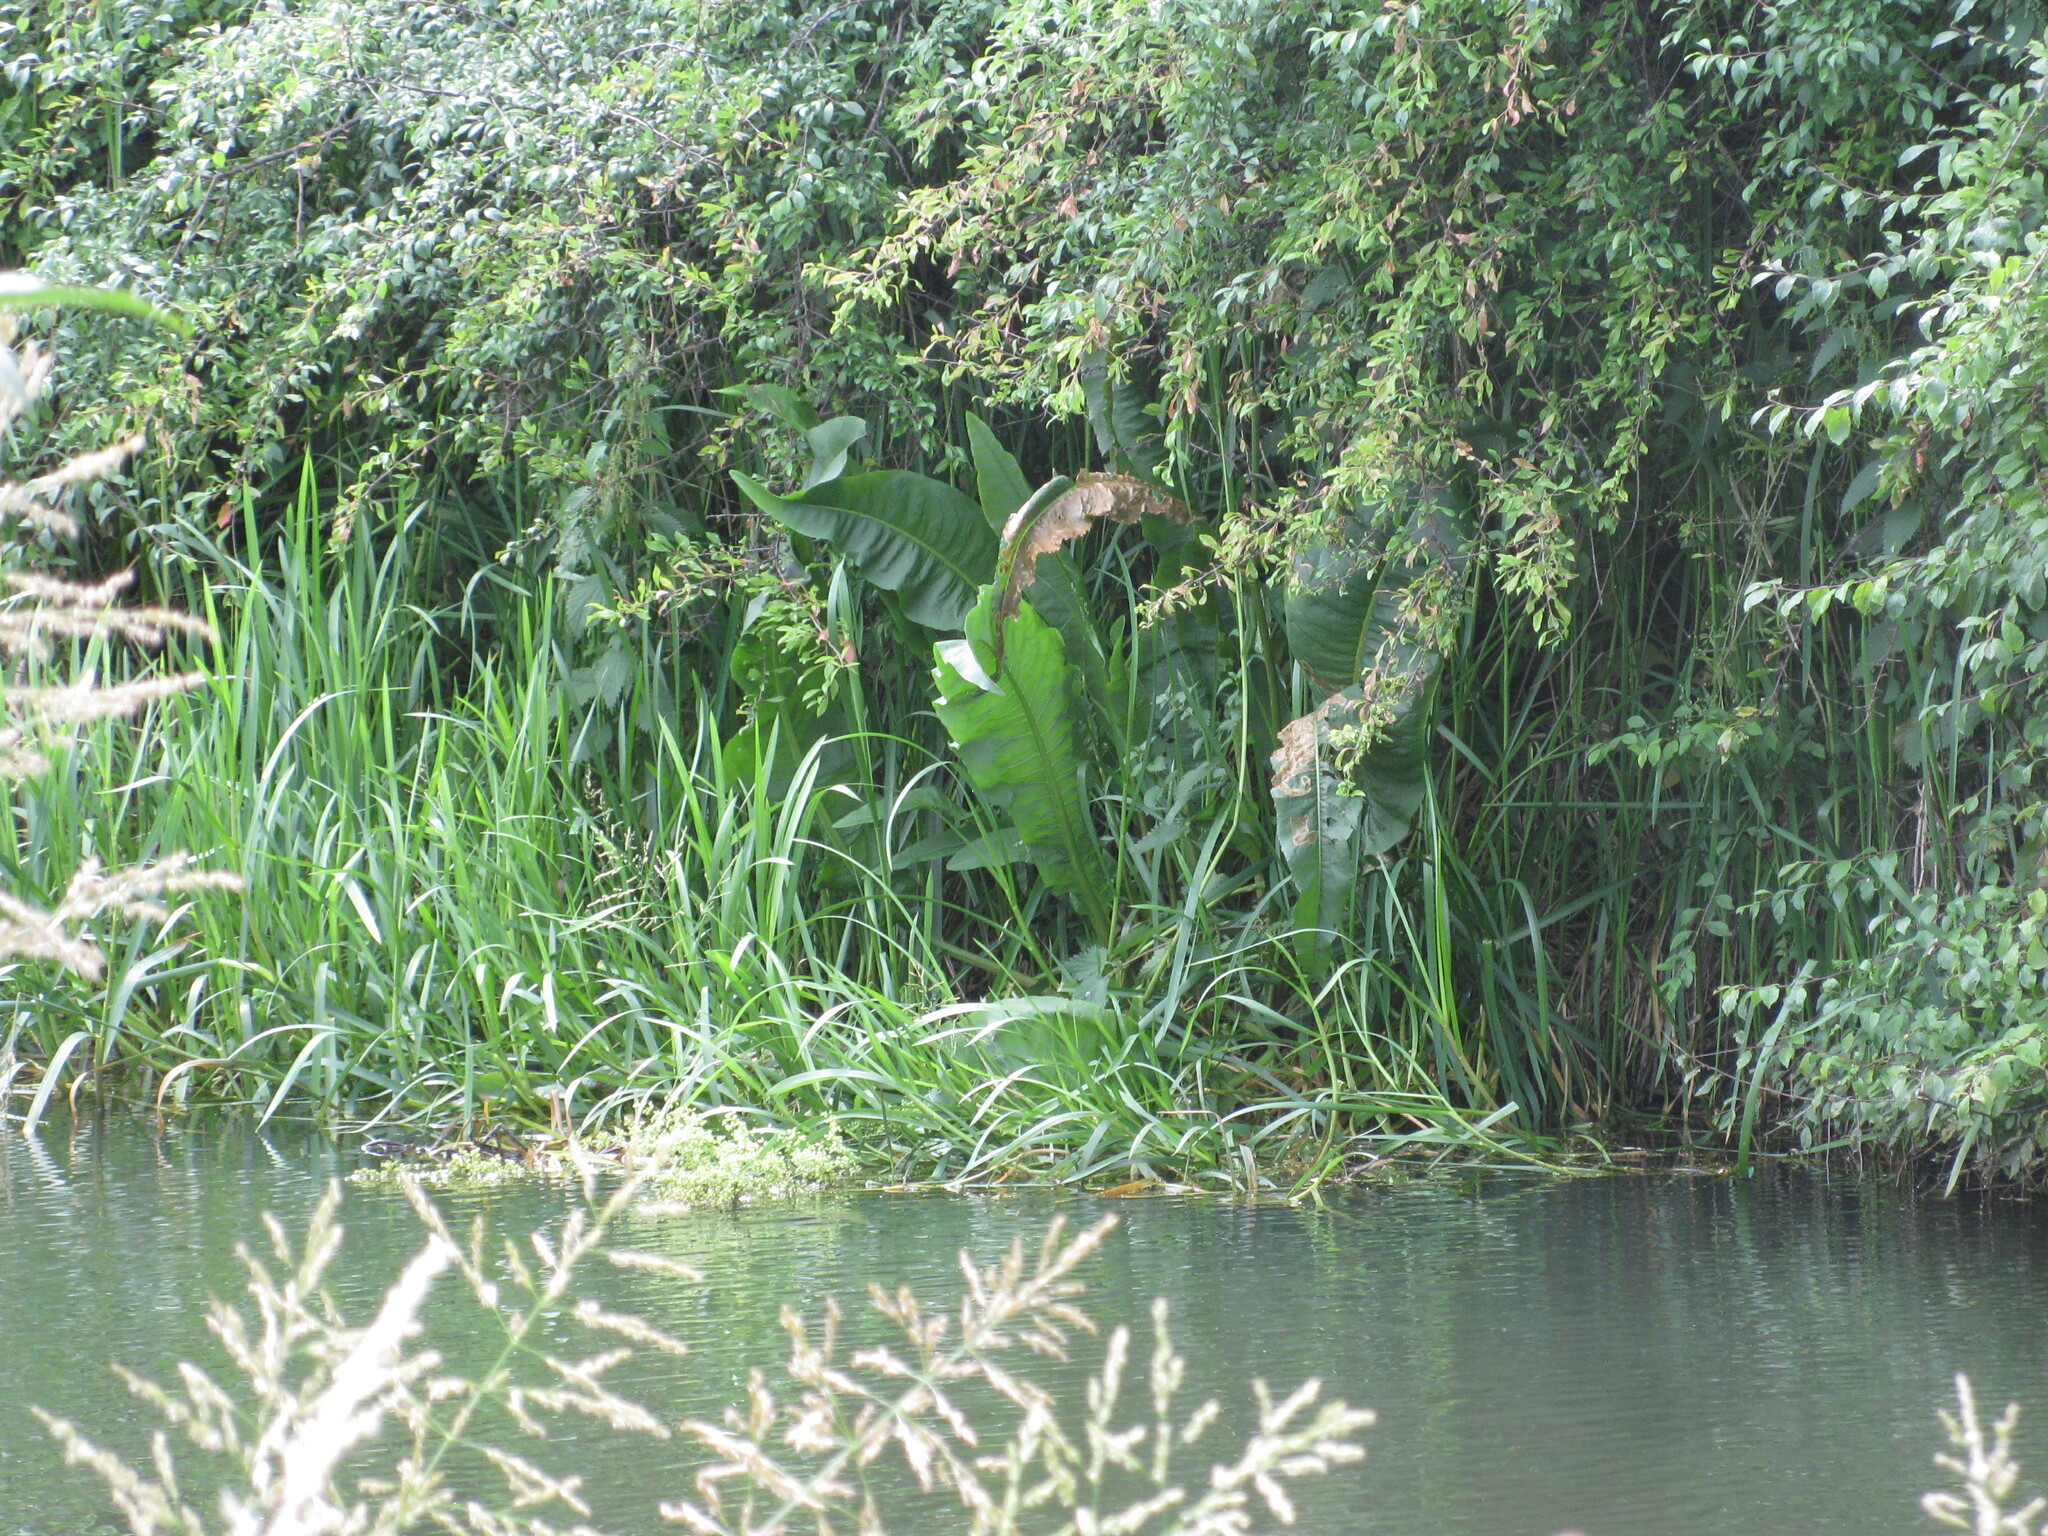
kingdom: Plantae
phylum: Tracheophyta
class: Magnoliopsida
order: Caryophyllales
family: Polygonaceae
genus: Rumex
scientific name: Rumex hydrolapathum
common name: Water dock
